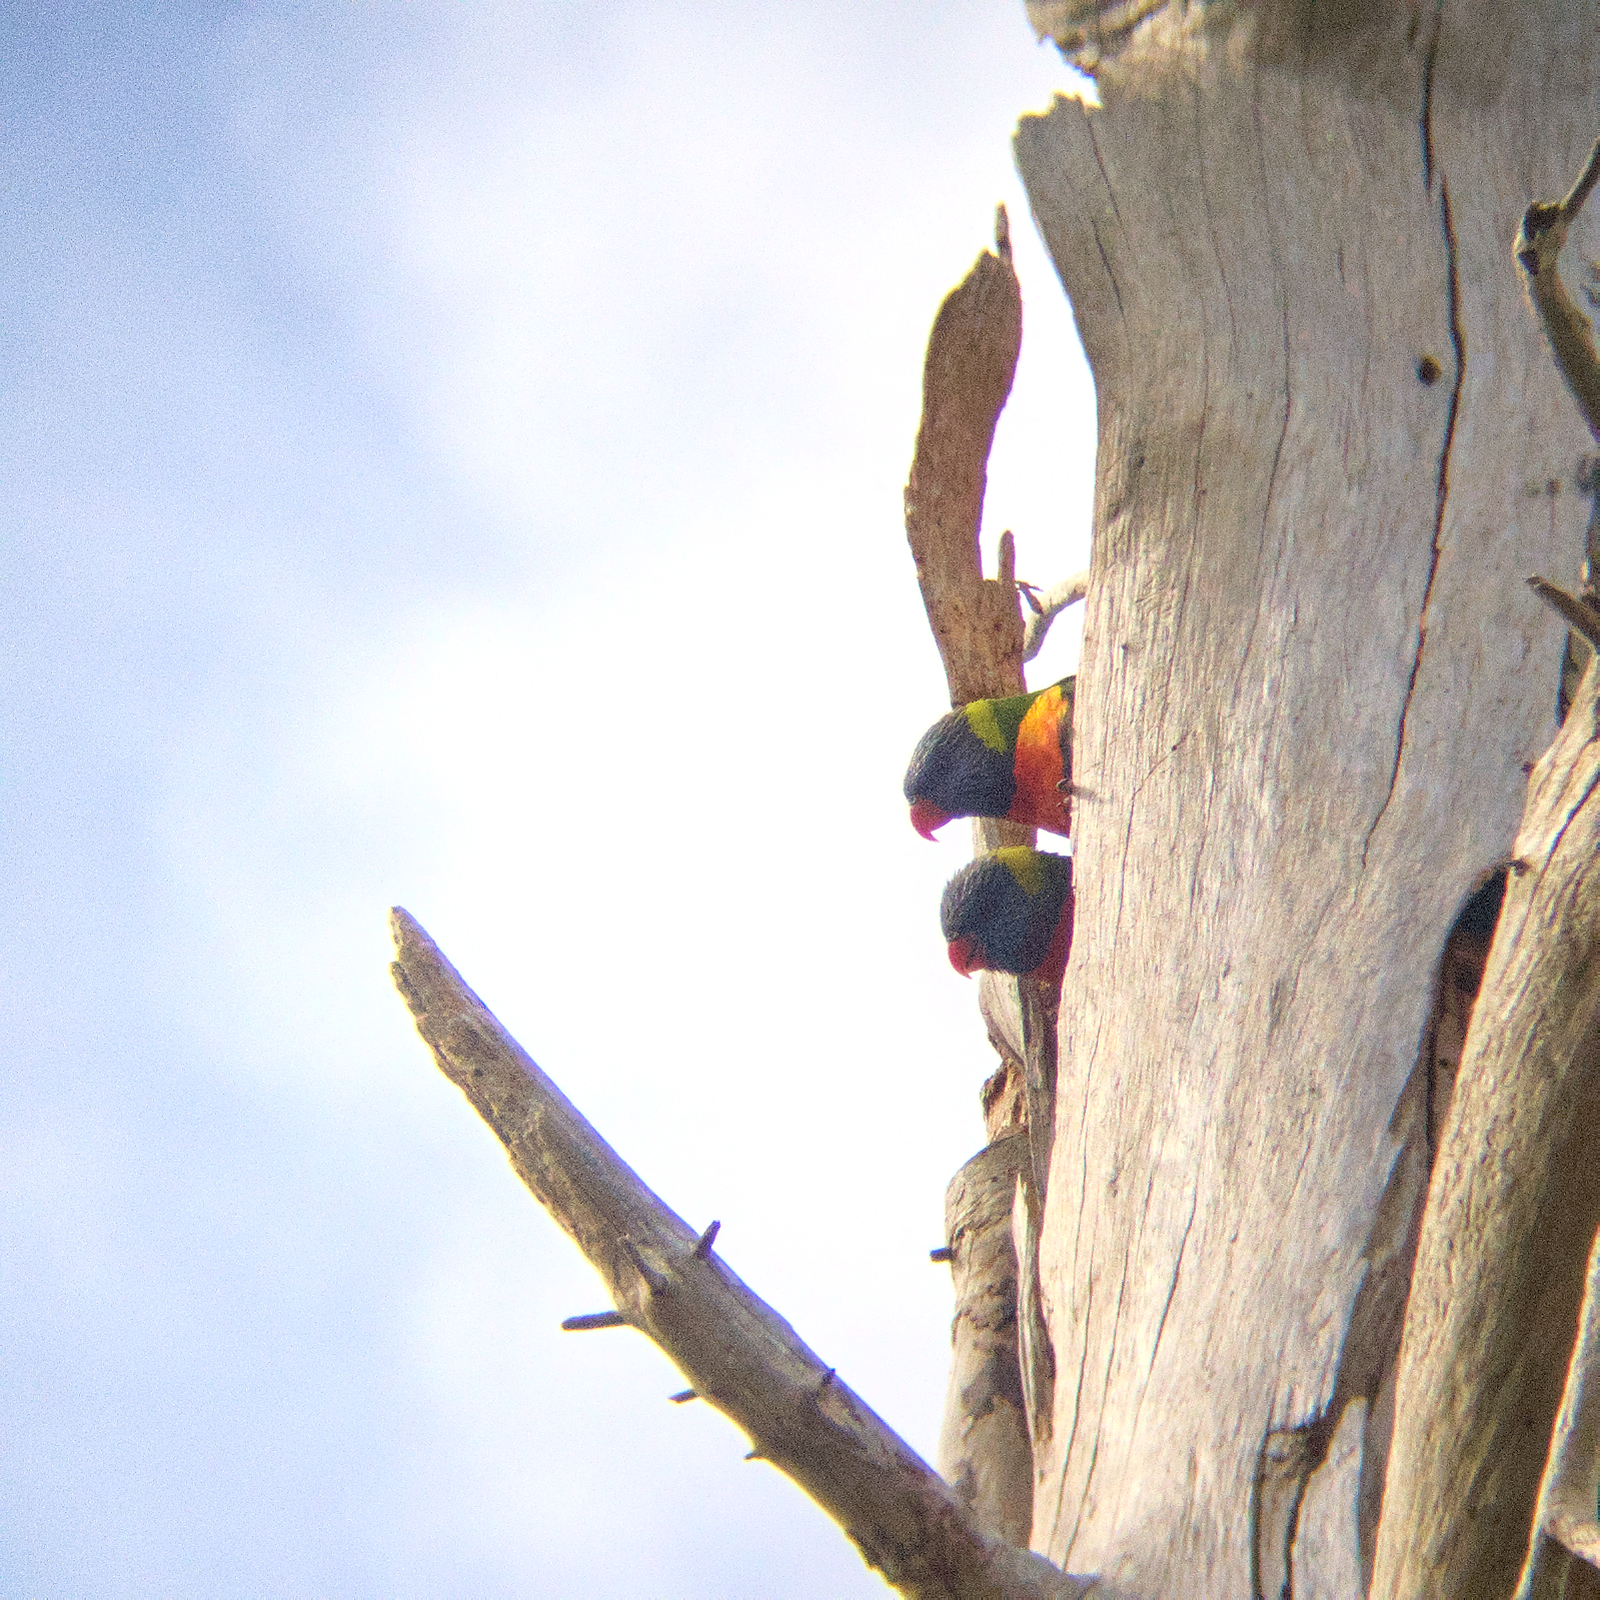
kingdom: Animalia
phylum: Chordata
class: Aves
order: Psittaciformes
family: Psittacidae
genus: Trichoglossus
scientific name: Trichoglossus haematodus
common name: Coconut lorikeet
